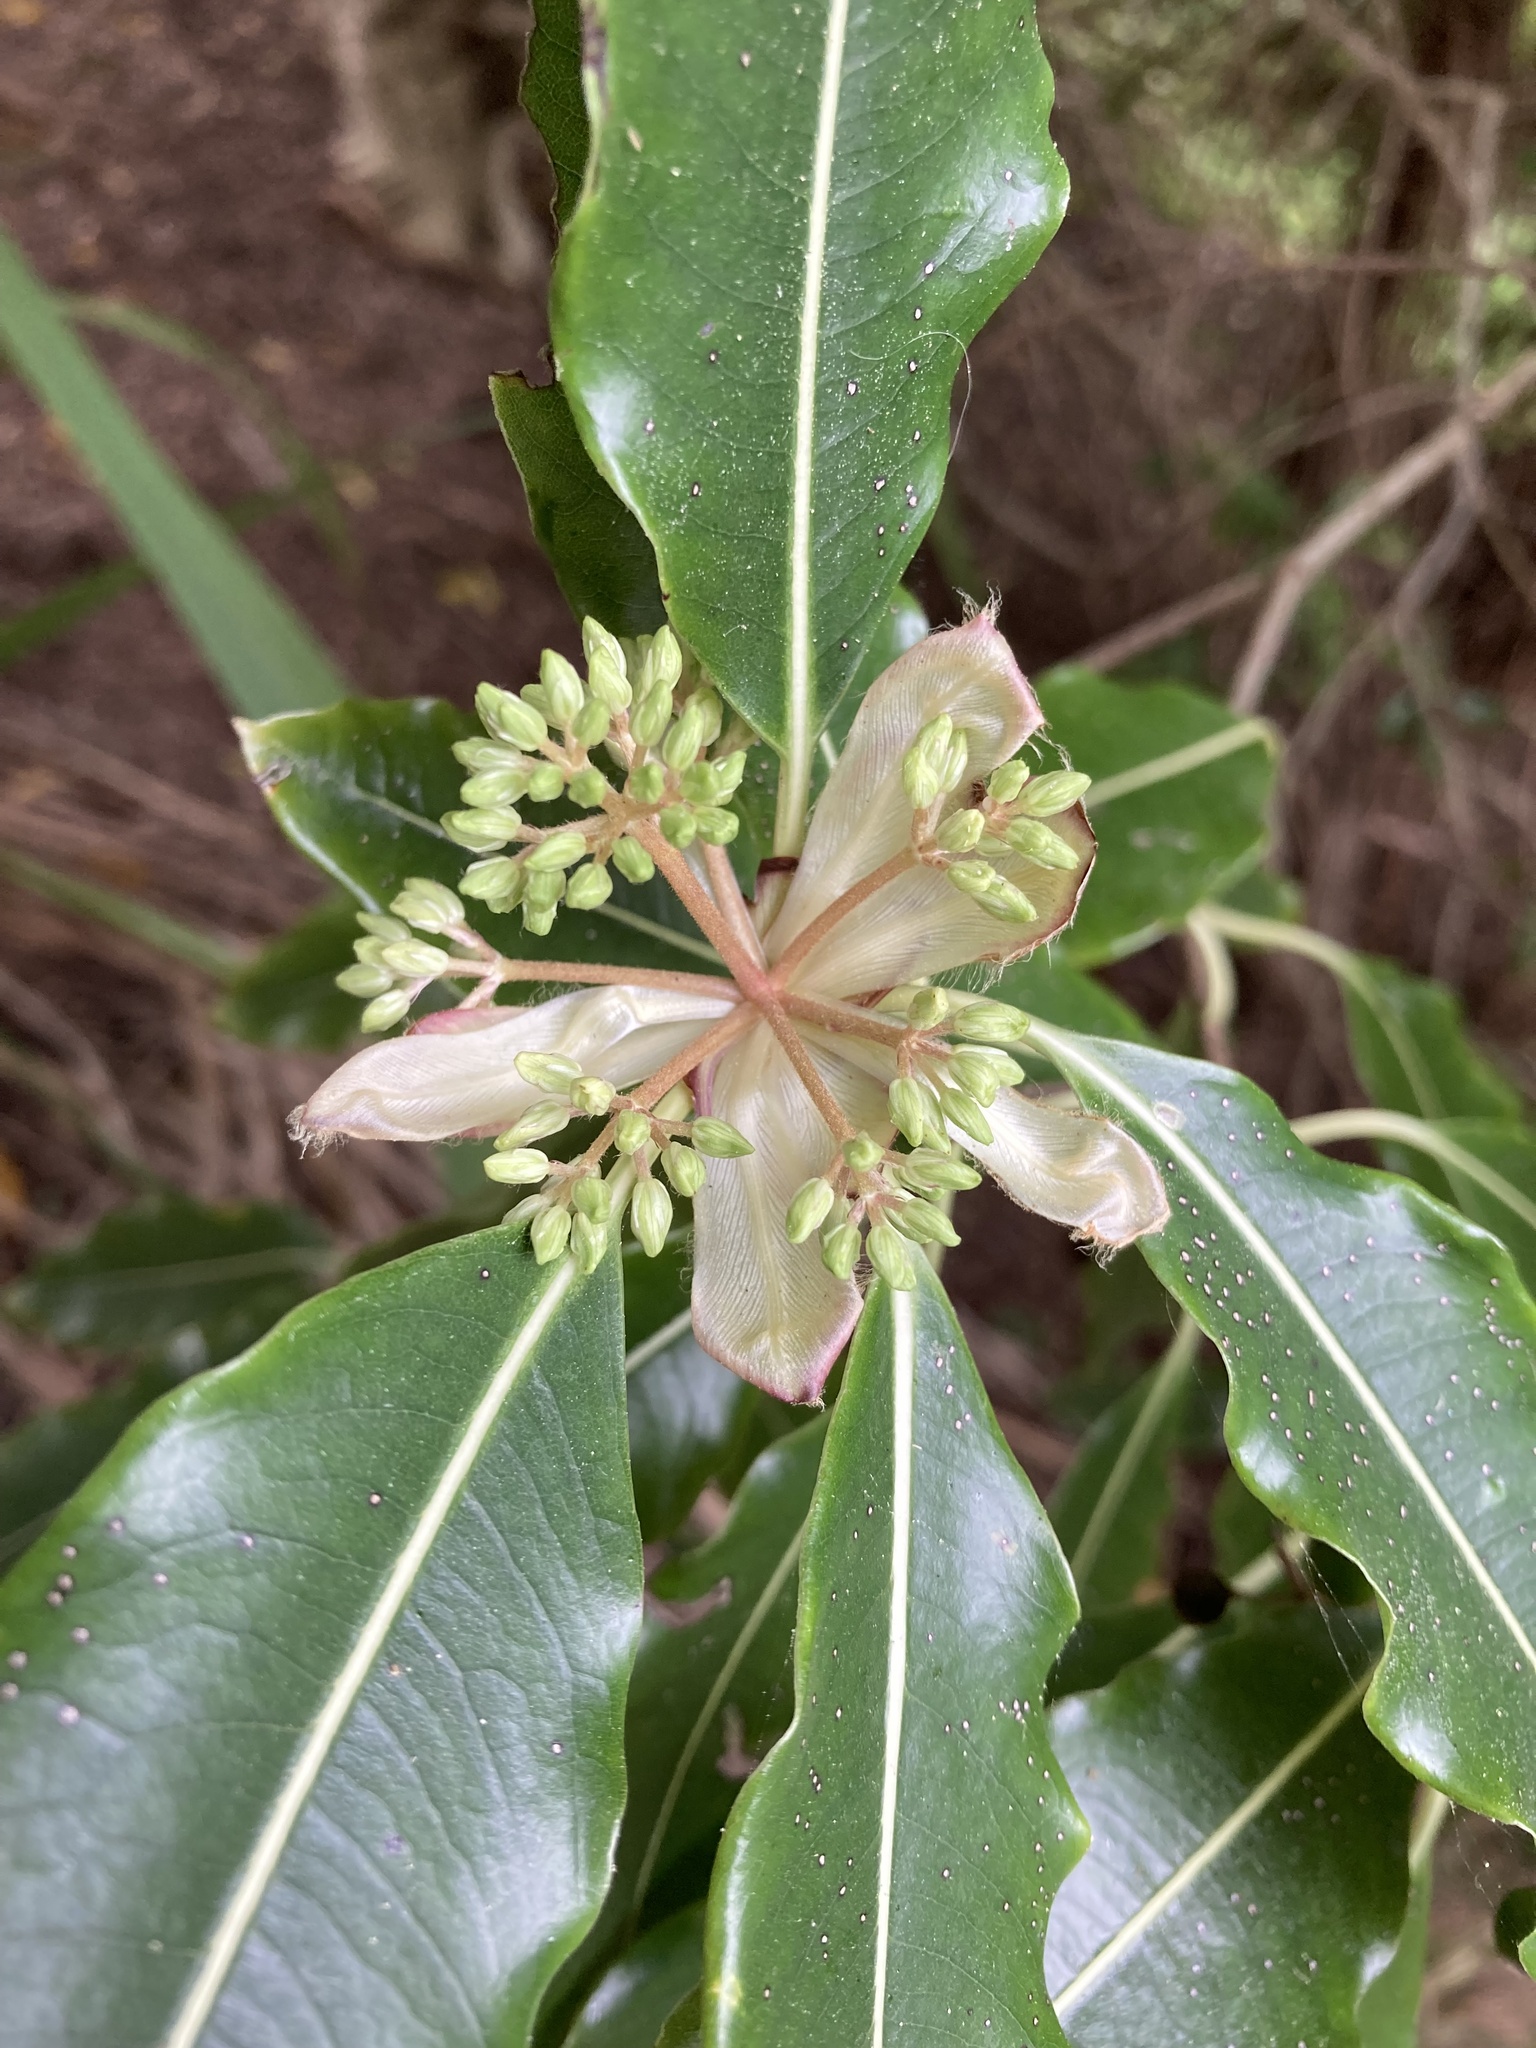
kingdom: Plantae
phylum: Tracheophyta
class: Magnoliopsida
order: Apiales
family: Pittosporaceae
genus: Pittosporum
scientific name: Pittosporum eugenioides
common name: Lemonwood
